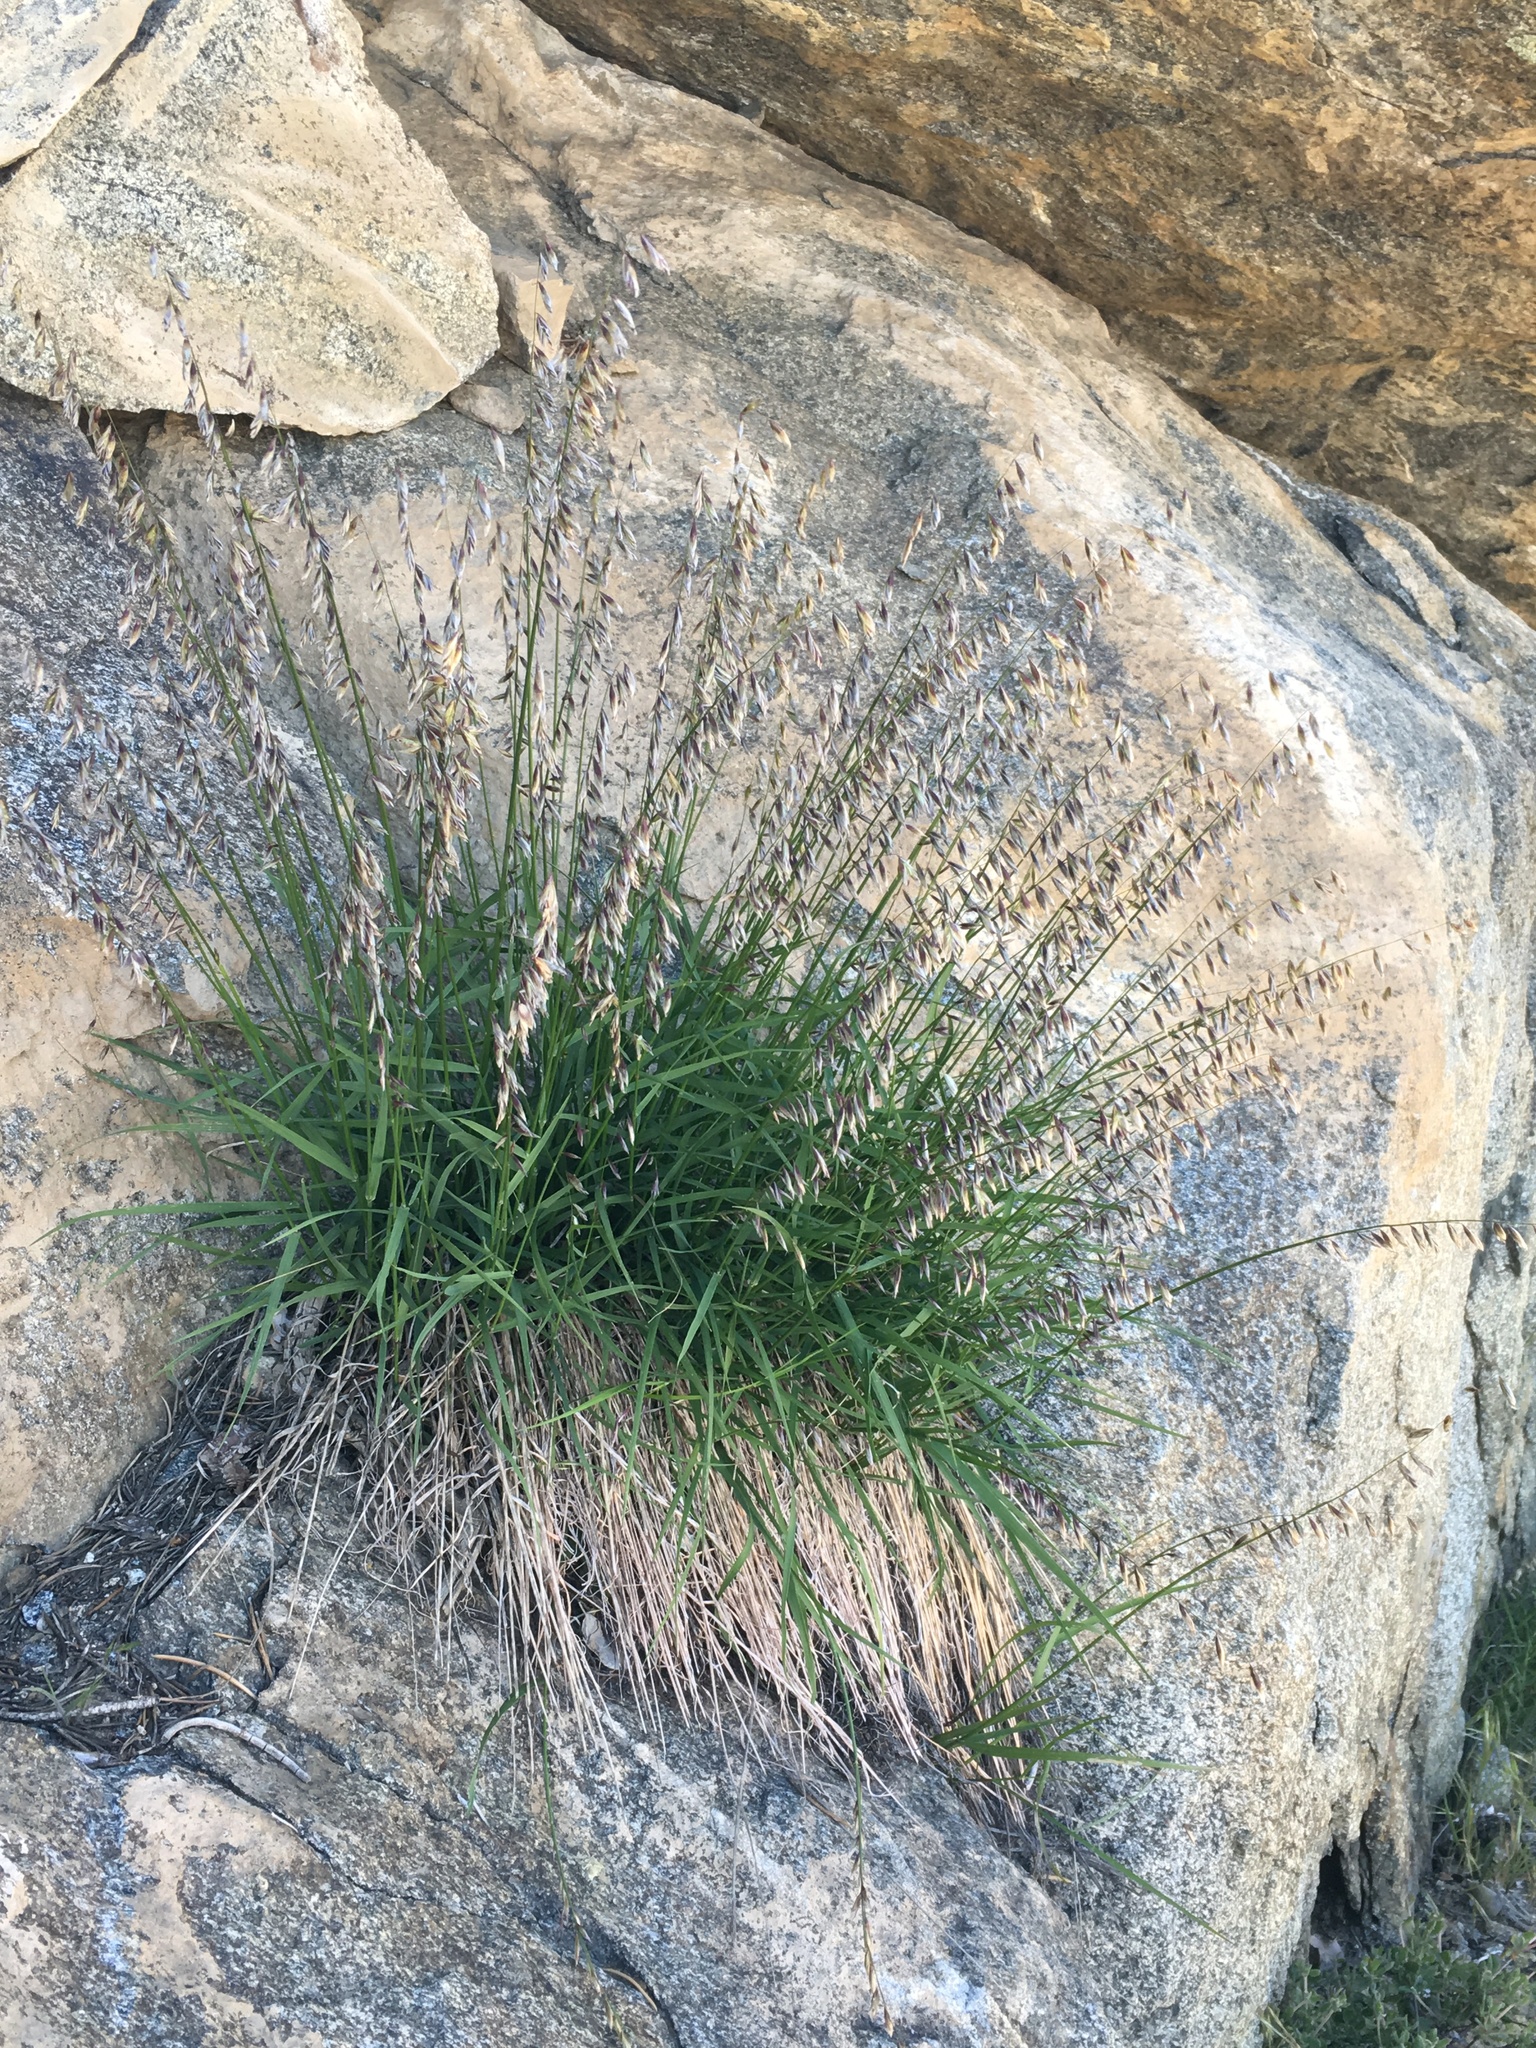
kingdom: Plantae
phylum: Tracheophyta
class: Liliopsida
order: Poales
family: Poaceae
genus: Melica
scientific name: Melica stricta
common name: Rock melic
